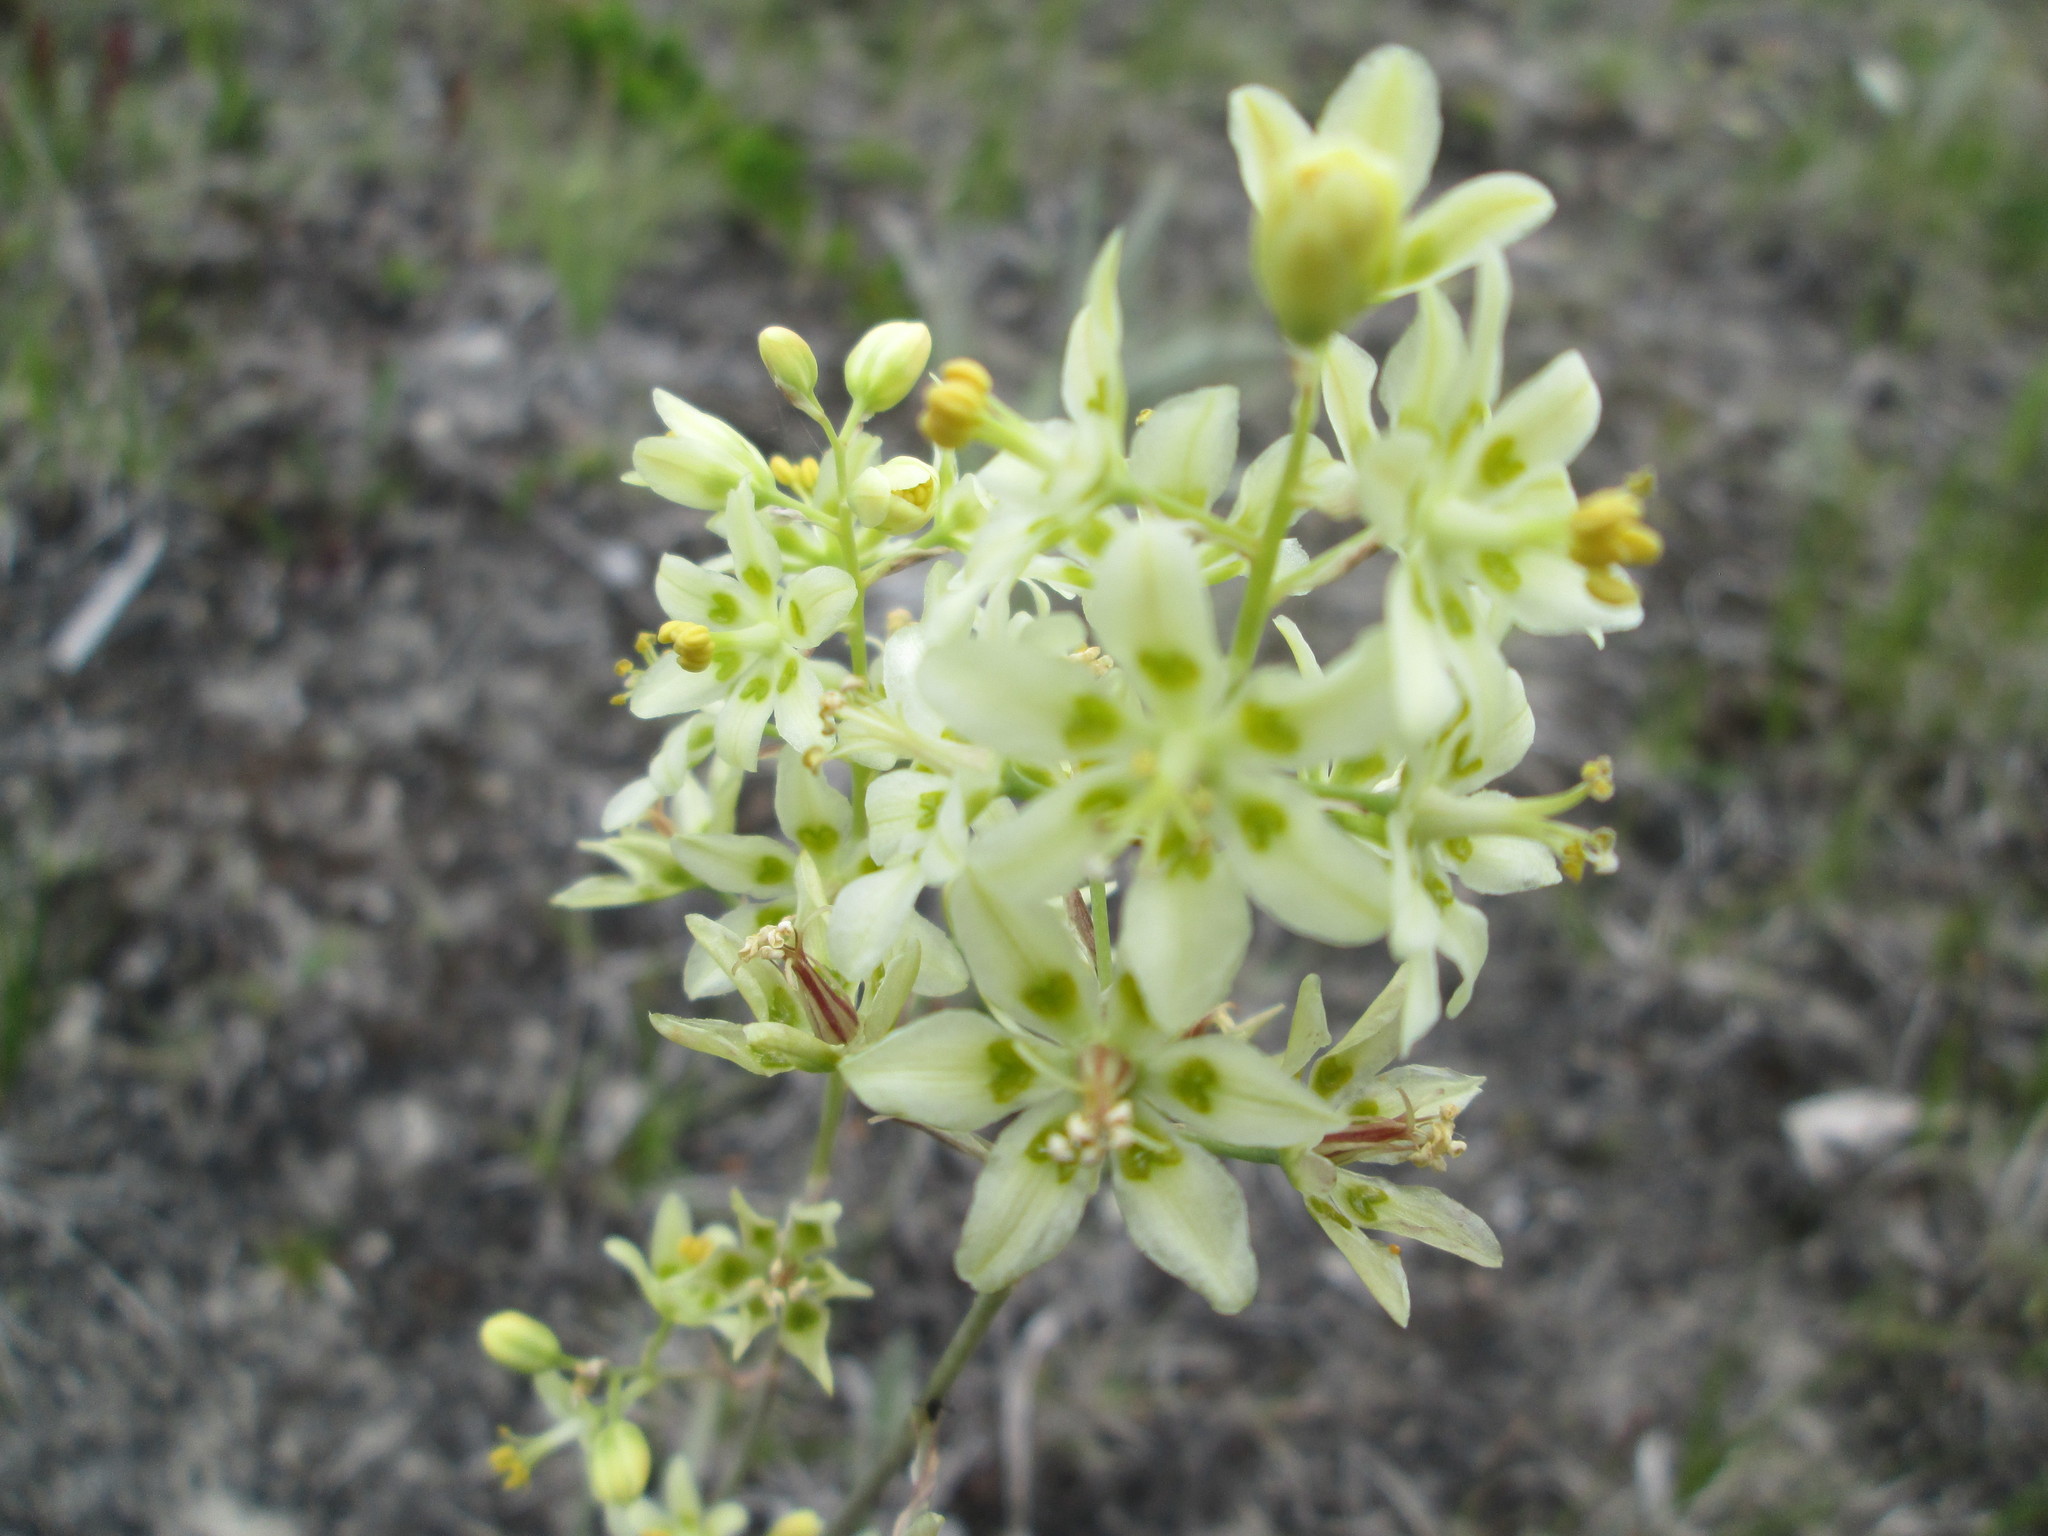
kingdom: Plantae
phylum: Tracheophyta
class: Liliopsida
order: Liliales
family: Melanthiaceae
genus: Anticlea
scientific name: Anticlea elegans
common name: Mountain death camas
